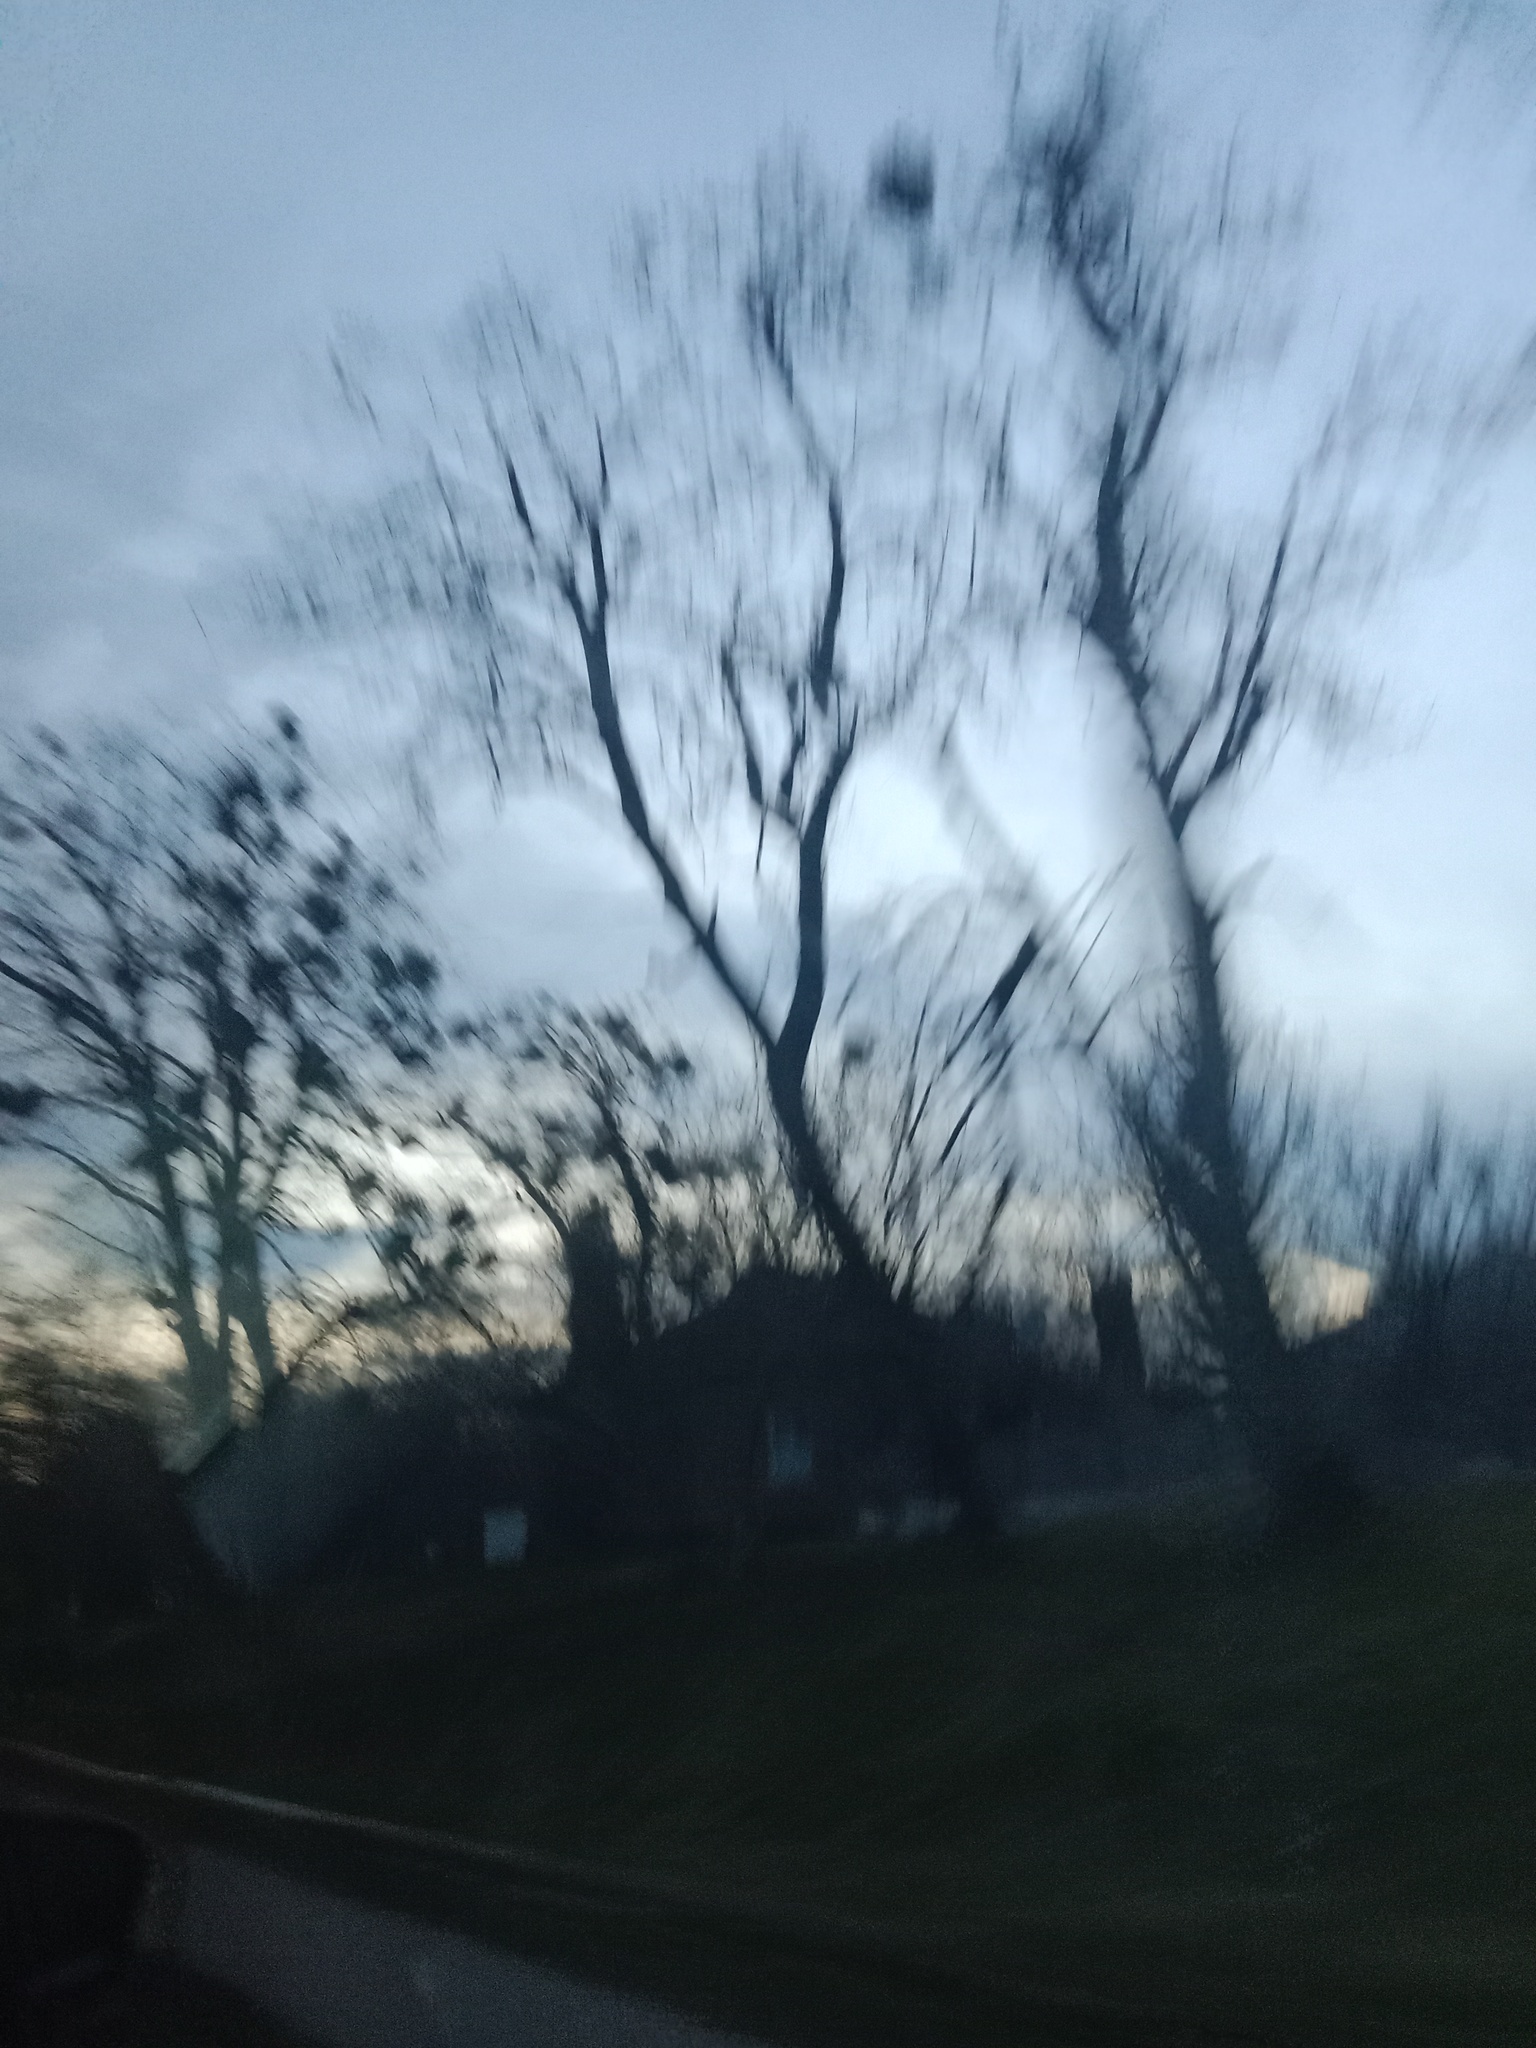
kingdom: Plantae
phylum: Tracheophyta
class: Magnoliopsida
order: Santalales
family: Viscaceae
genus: Viscum
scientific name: Viscum album
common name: Mistletoe
